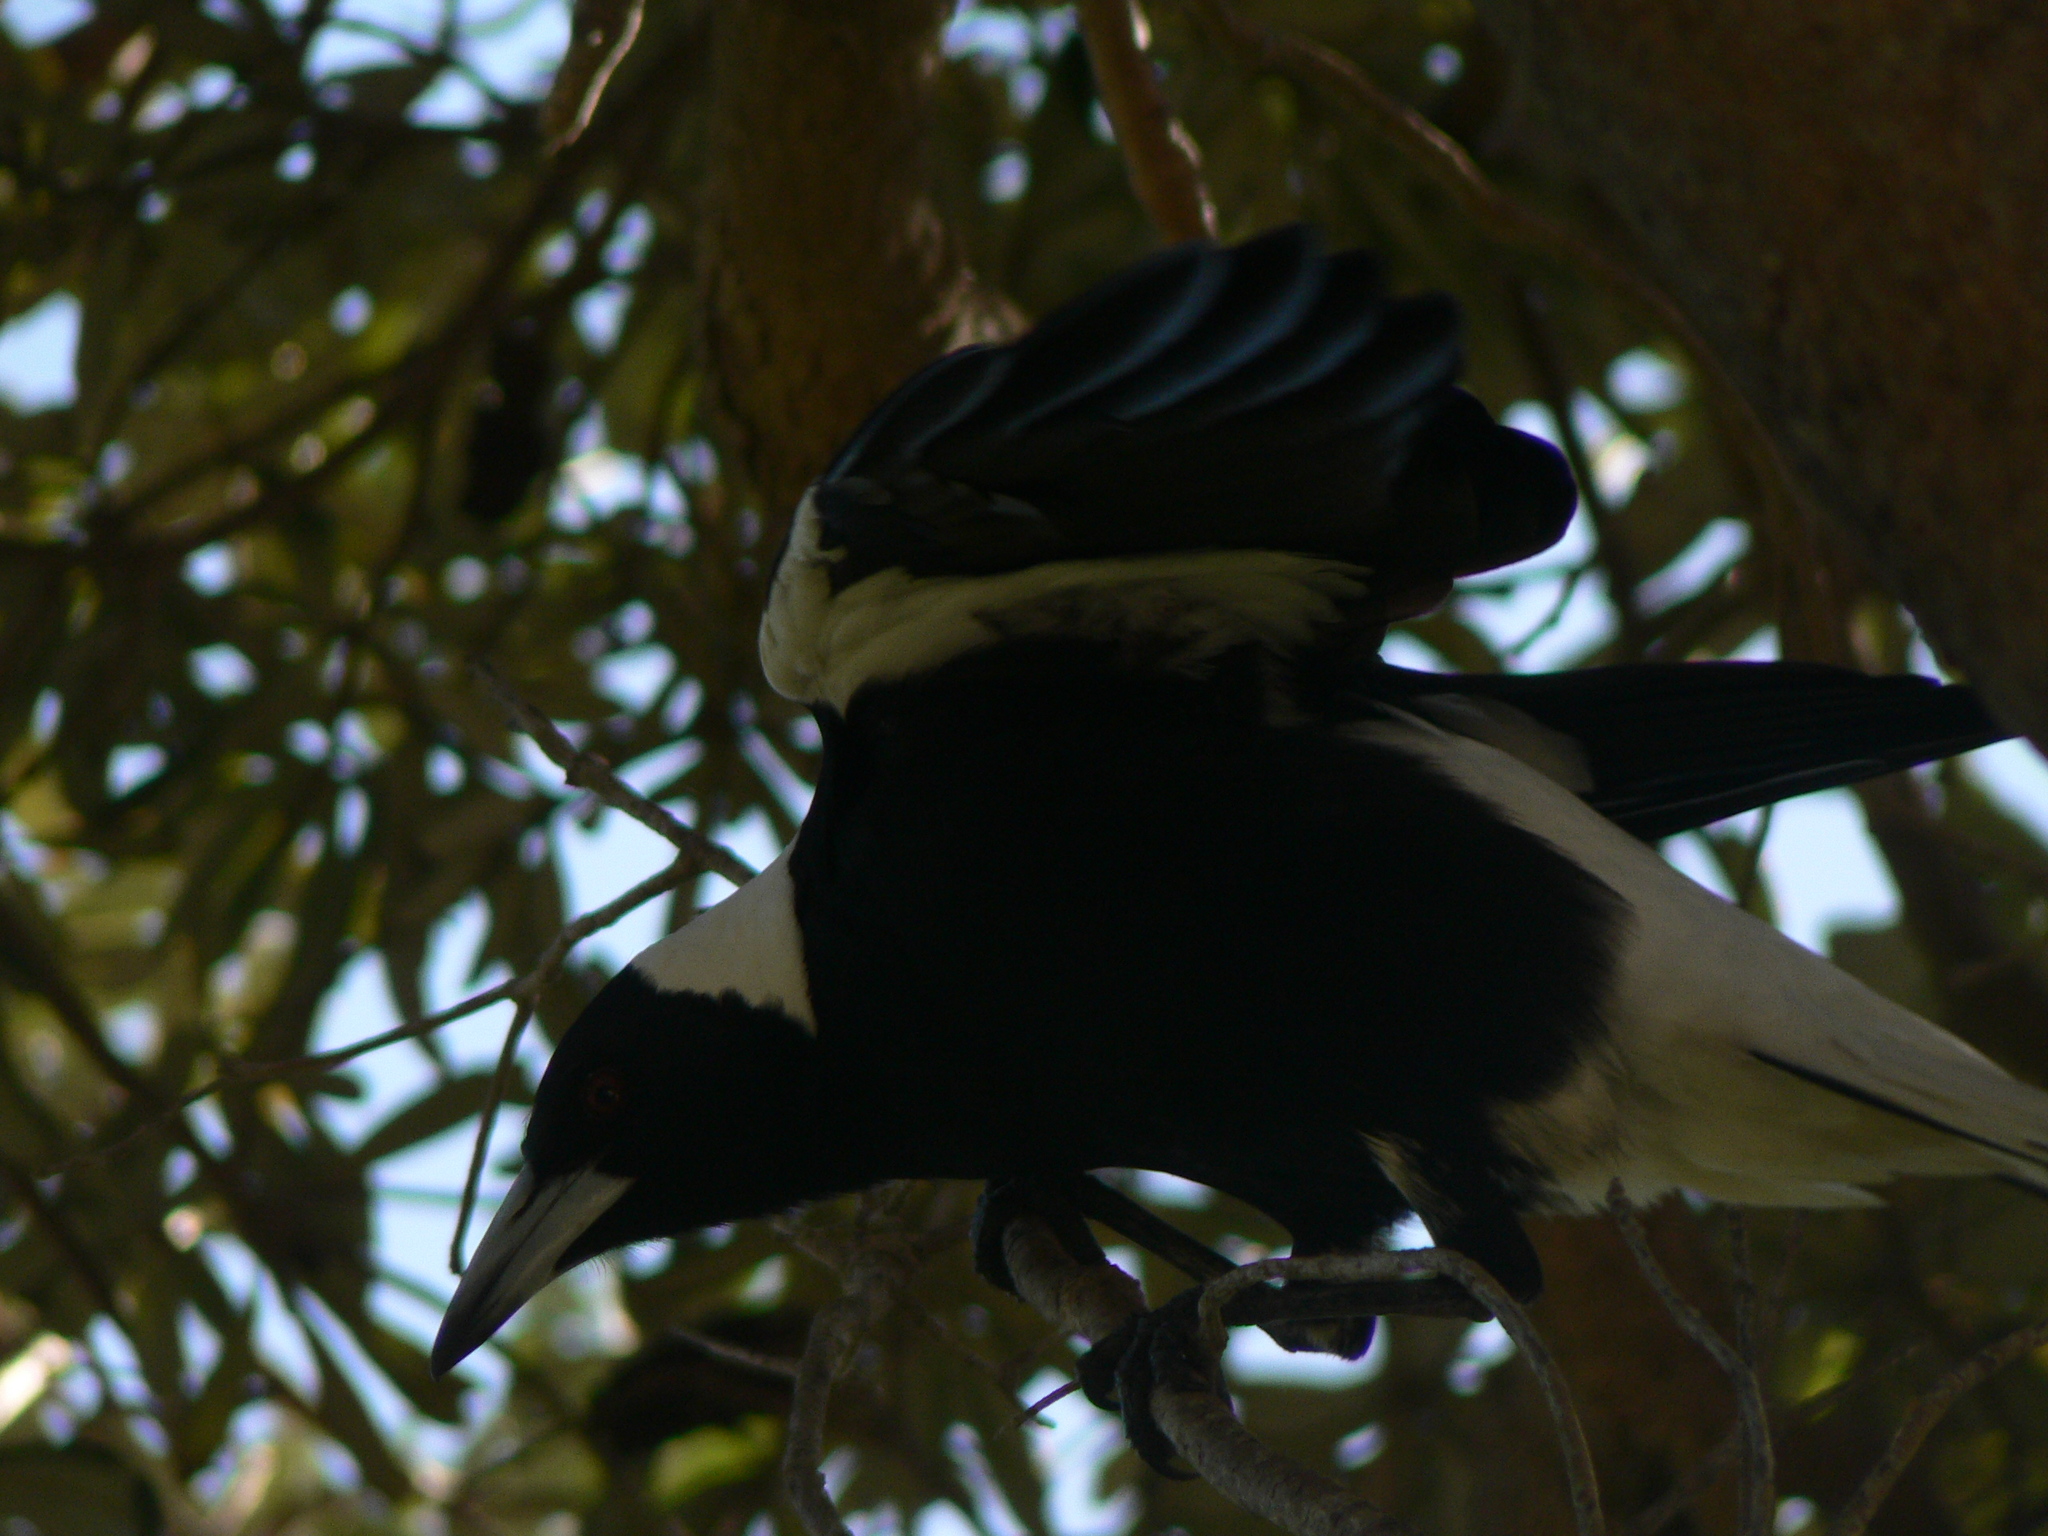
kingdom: Animalia
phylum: Chordata
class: Aves
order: Passeriformes
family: Cracticidae
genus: Gymnorhina
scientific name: Gymnorhina tibicen
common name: Australian magpie
